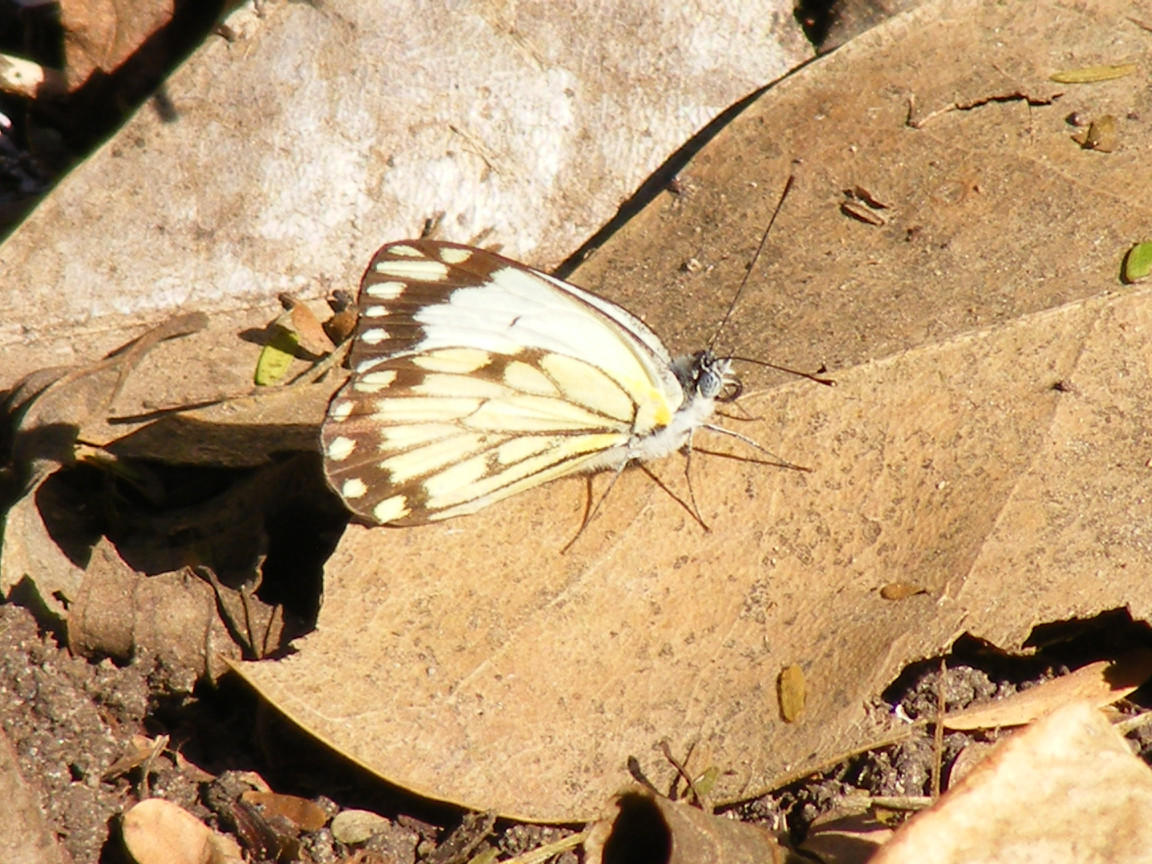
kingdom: Animalia
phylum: Arthropoda
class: Insecta
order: Lepidoptera
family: Pieridae
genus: Belenois
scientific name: Belenois creona
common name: African caper white
